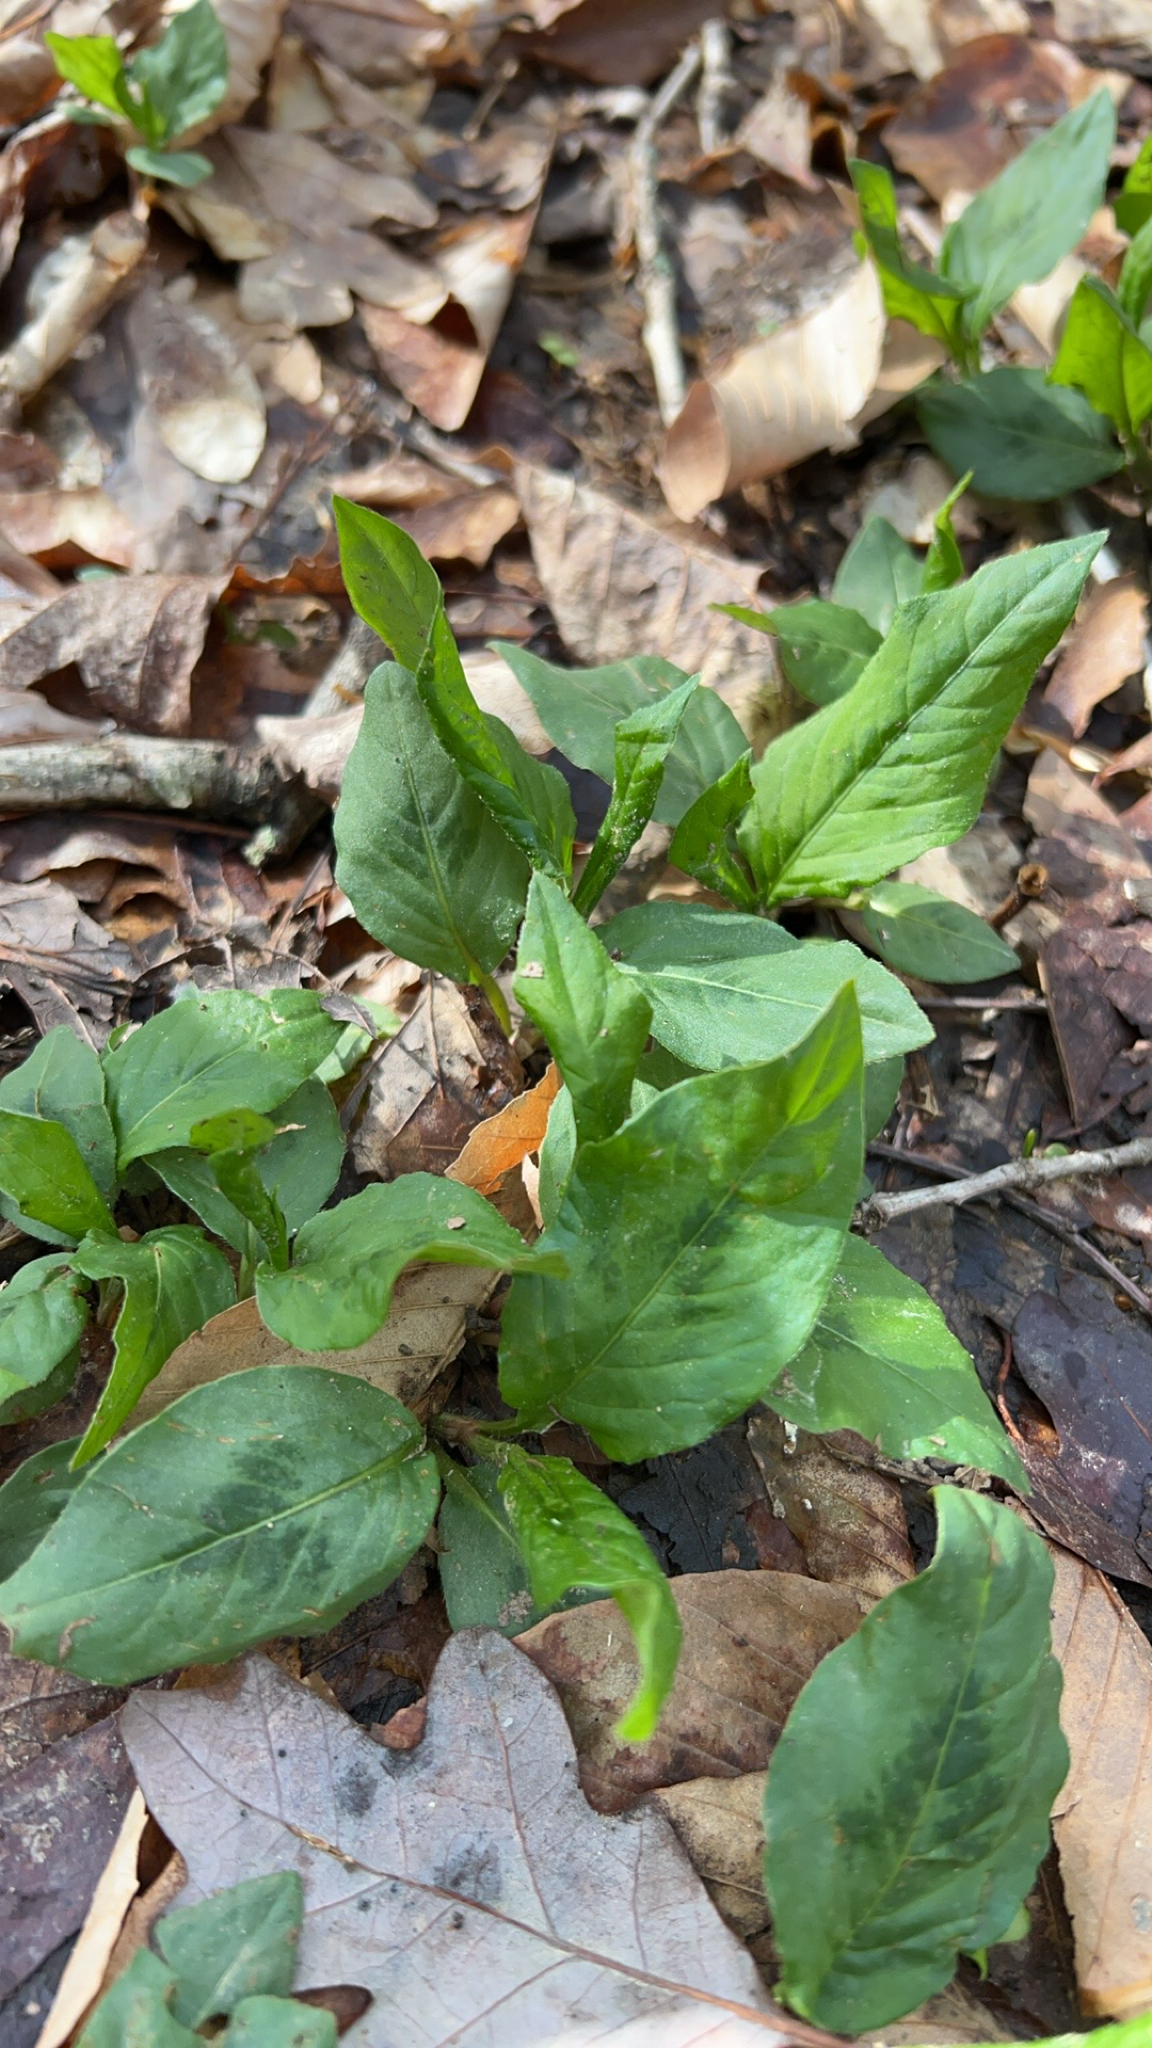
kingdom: Plantae
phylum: Tracheophyta
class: Magnoliopsida
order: Caryophyllales
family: Polygonaceae
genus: Persicaria
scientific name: Persicaria virginiana
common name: Jumpseed
